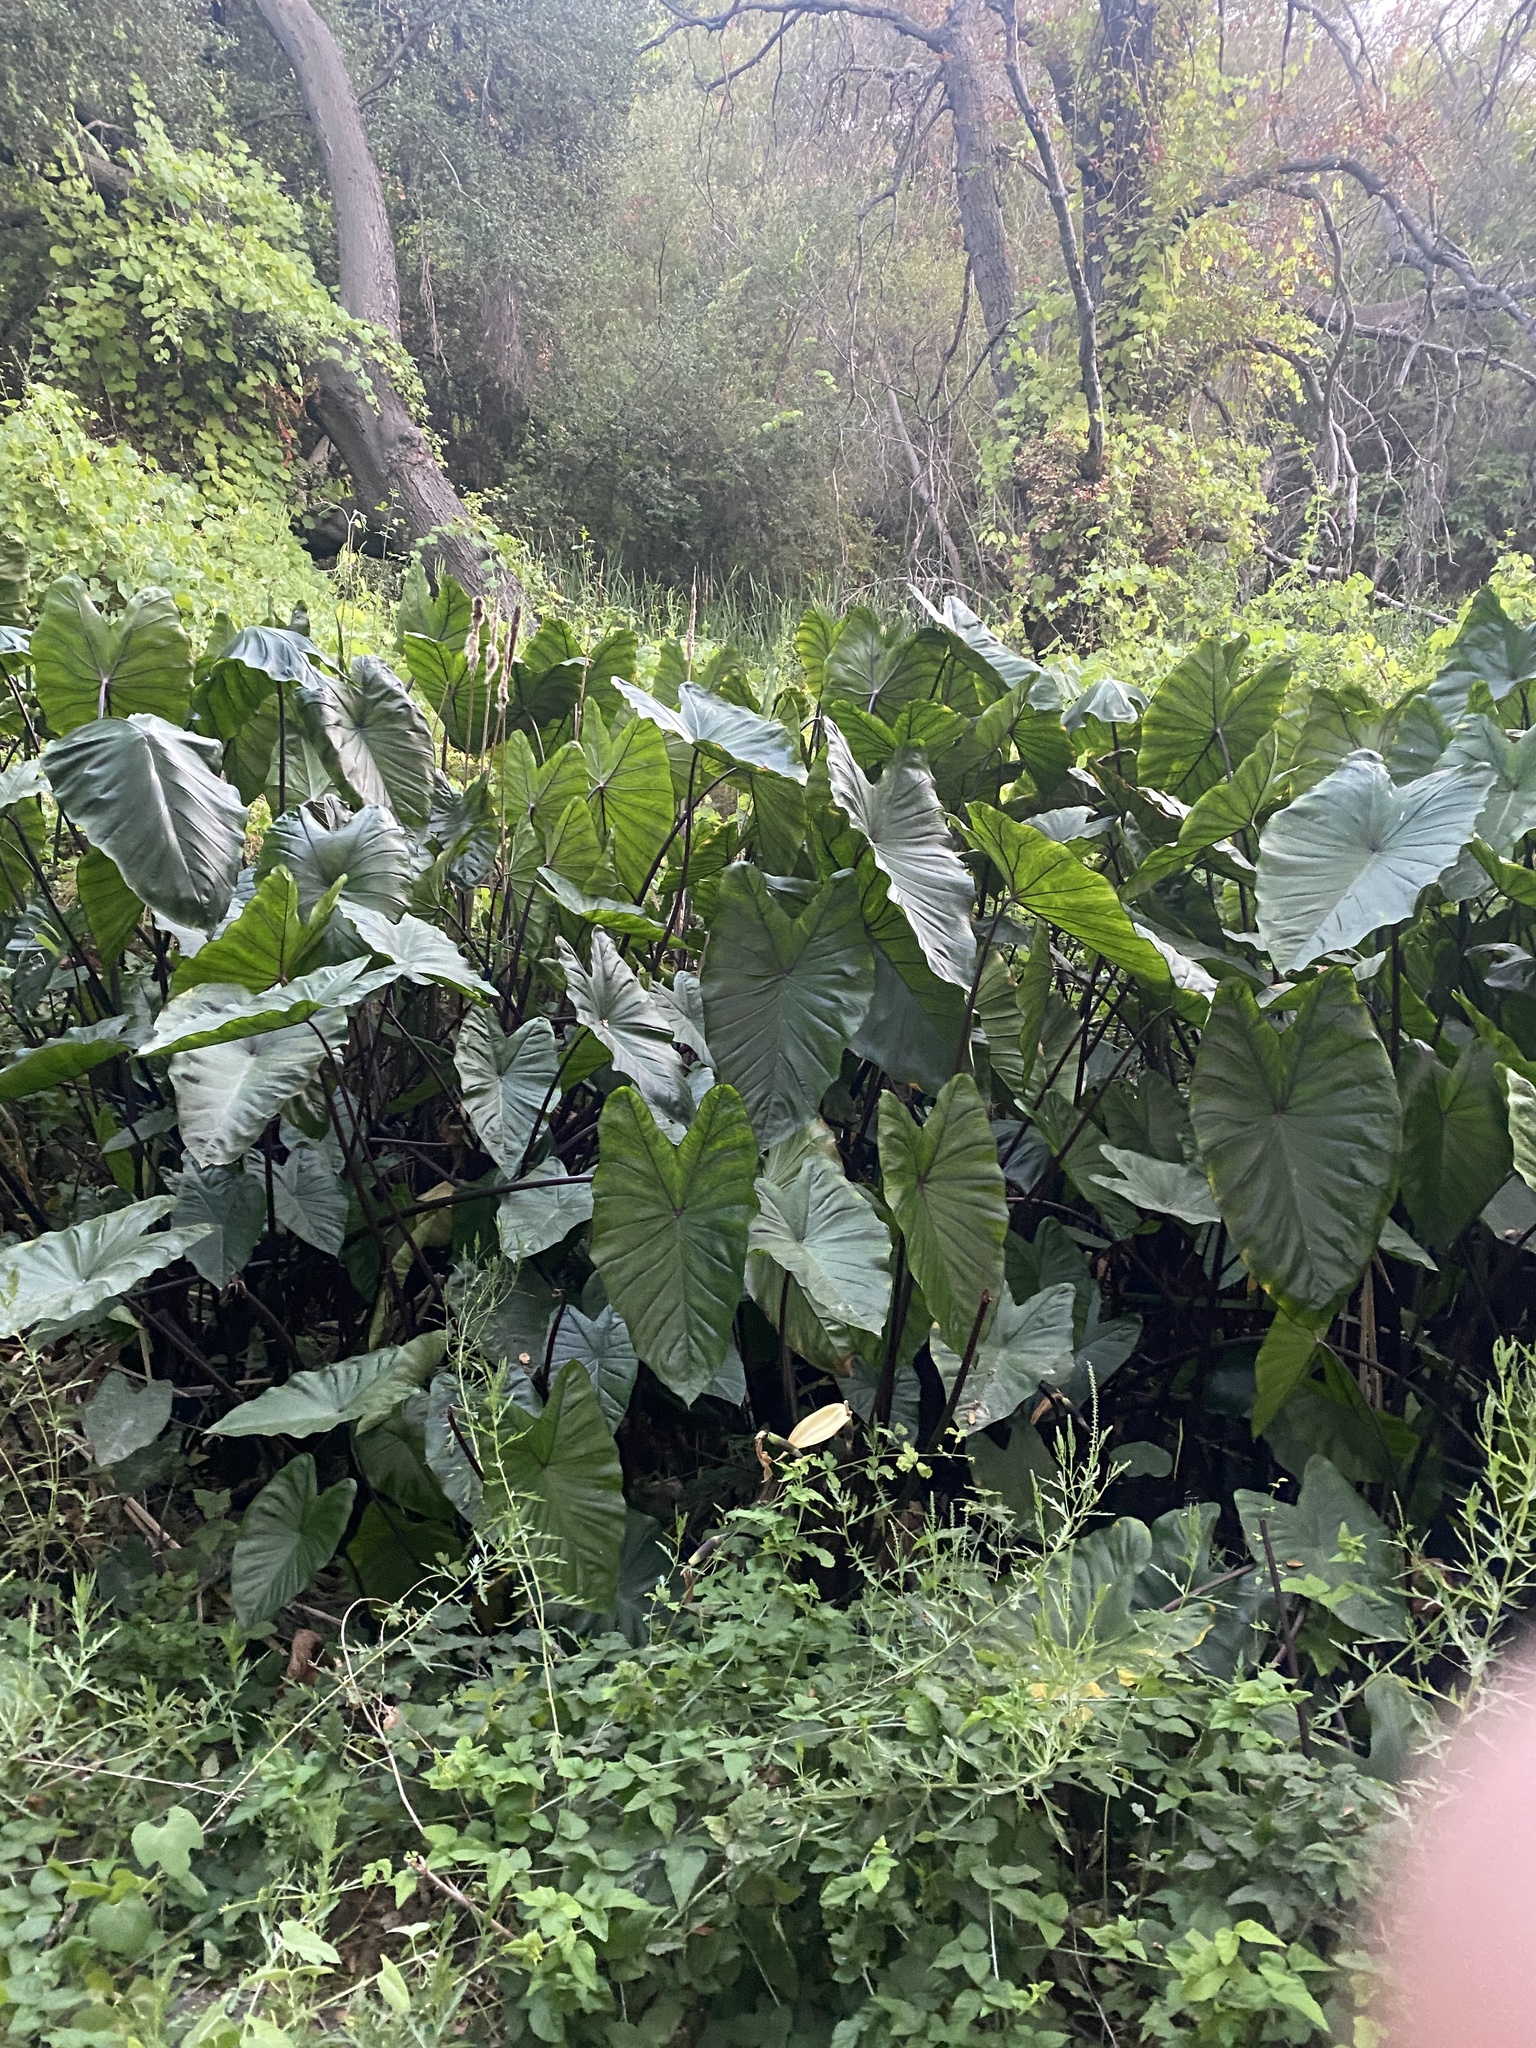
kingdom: Plantae
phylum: Tracheophyta
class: Liliopsida
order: Alismatales
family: Araceae
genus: Colocasia
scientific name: Colocasia fontanesii
